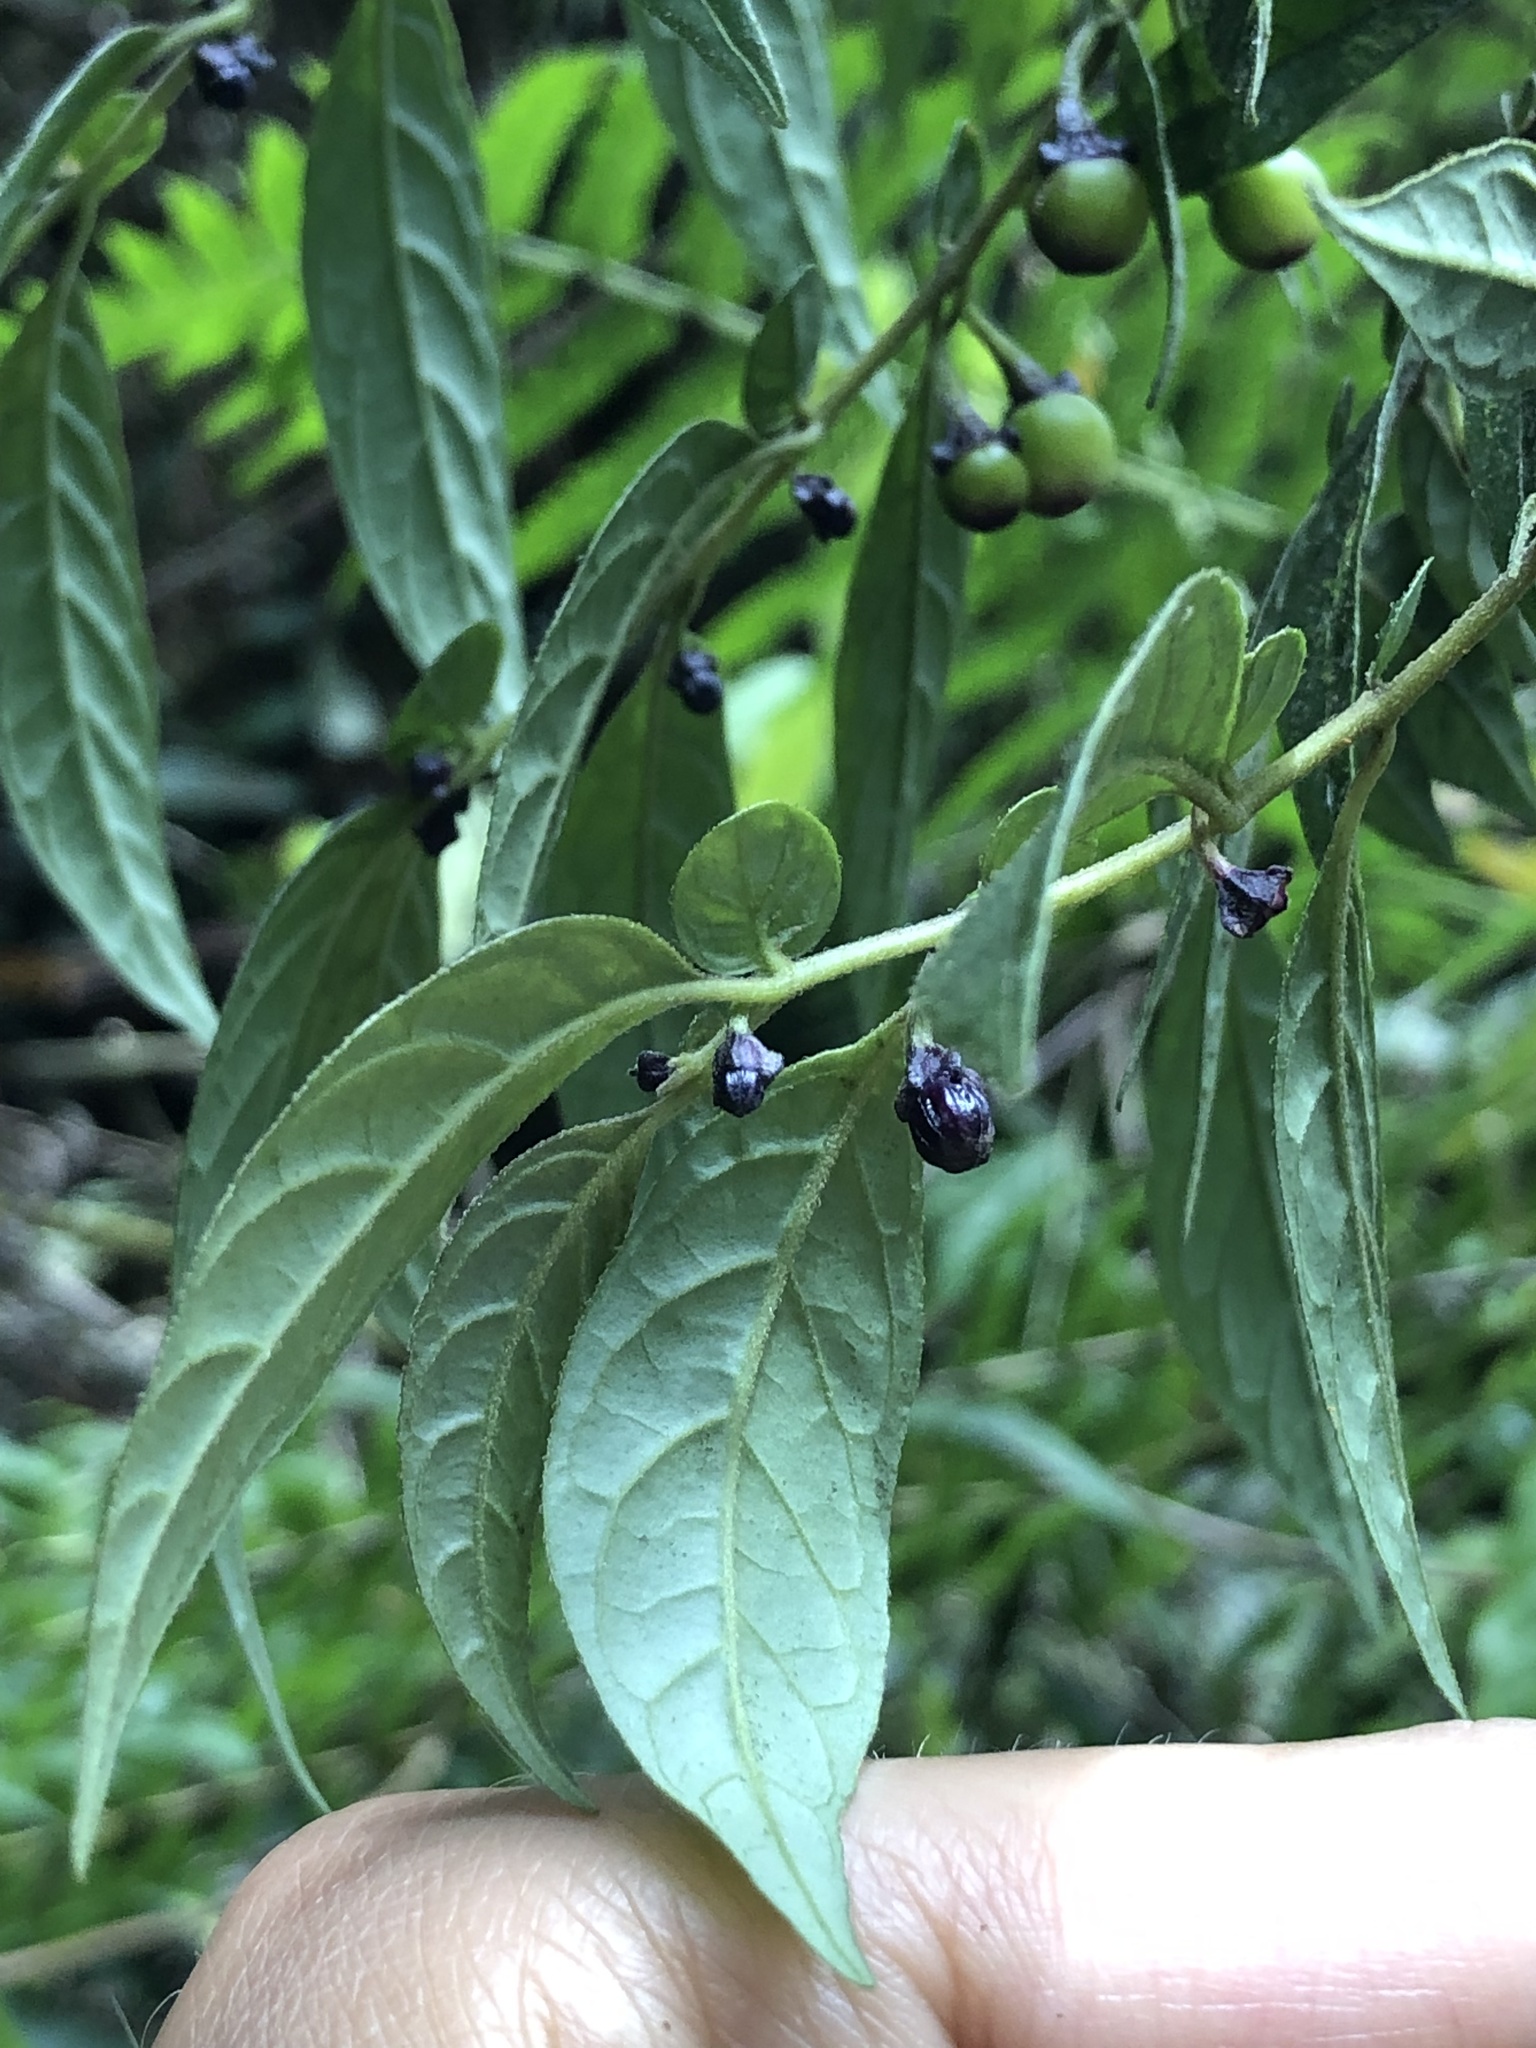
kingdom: Plantae
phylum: Tracheophyta
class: Magnoliopsida
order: Solanales
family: Solanaceae
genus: Capsicum
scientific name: Capsicum dimorphum
